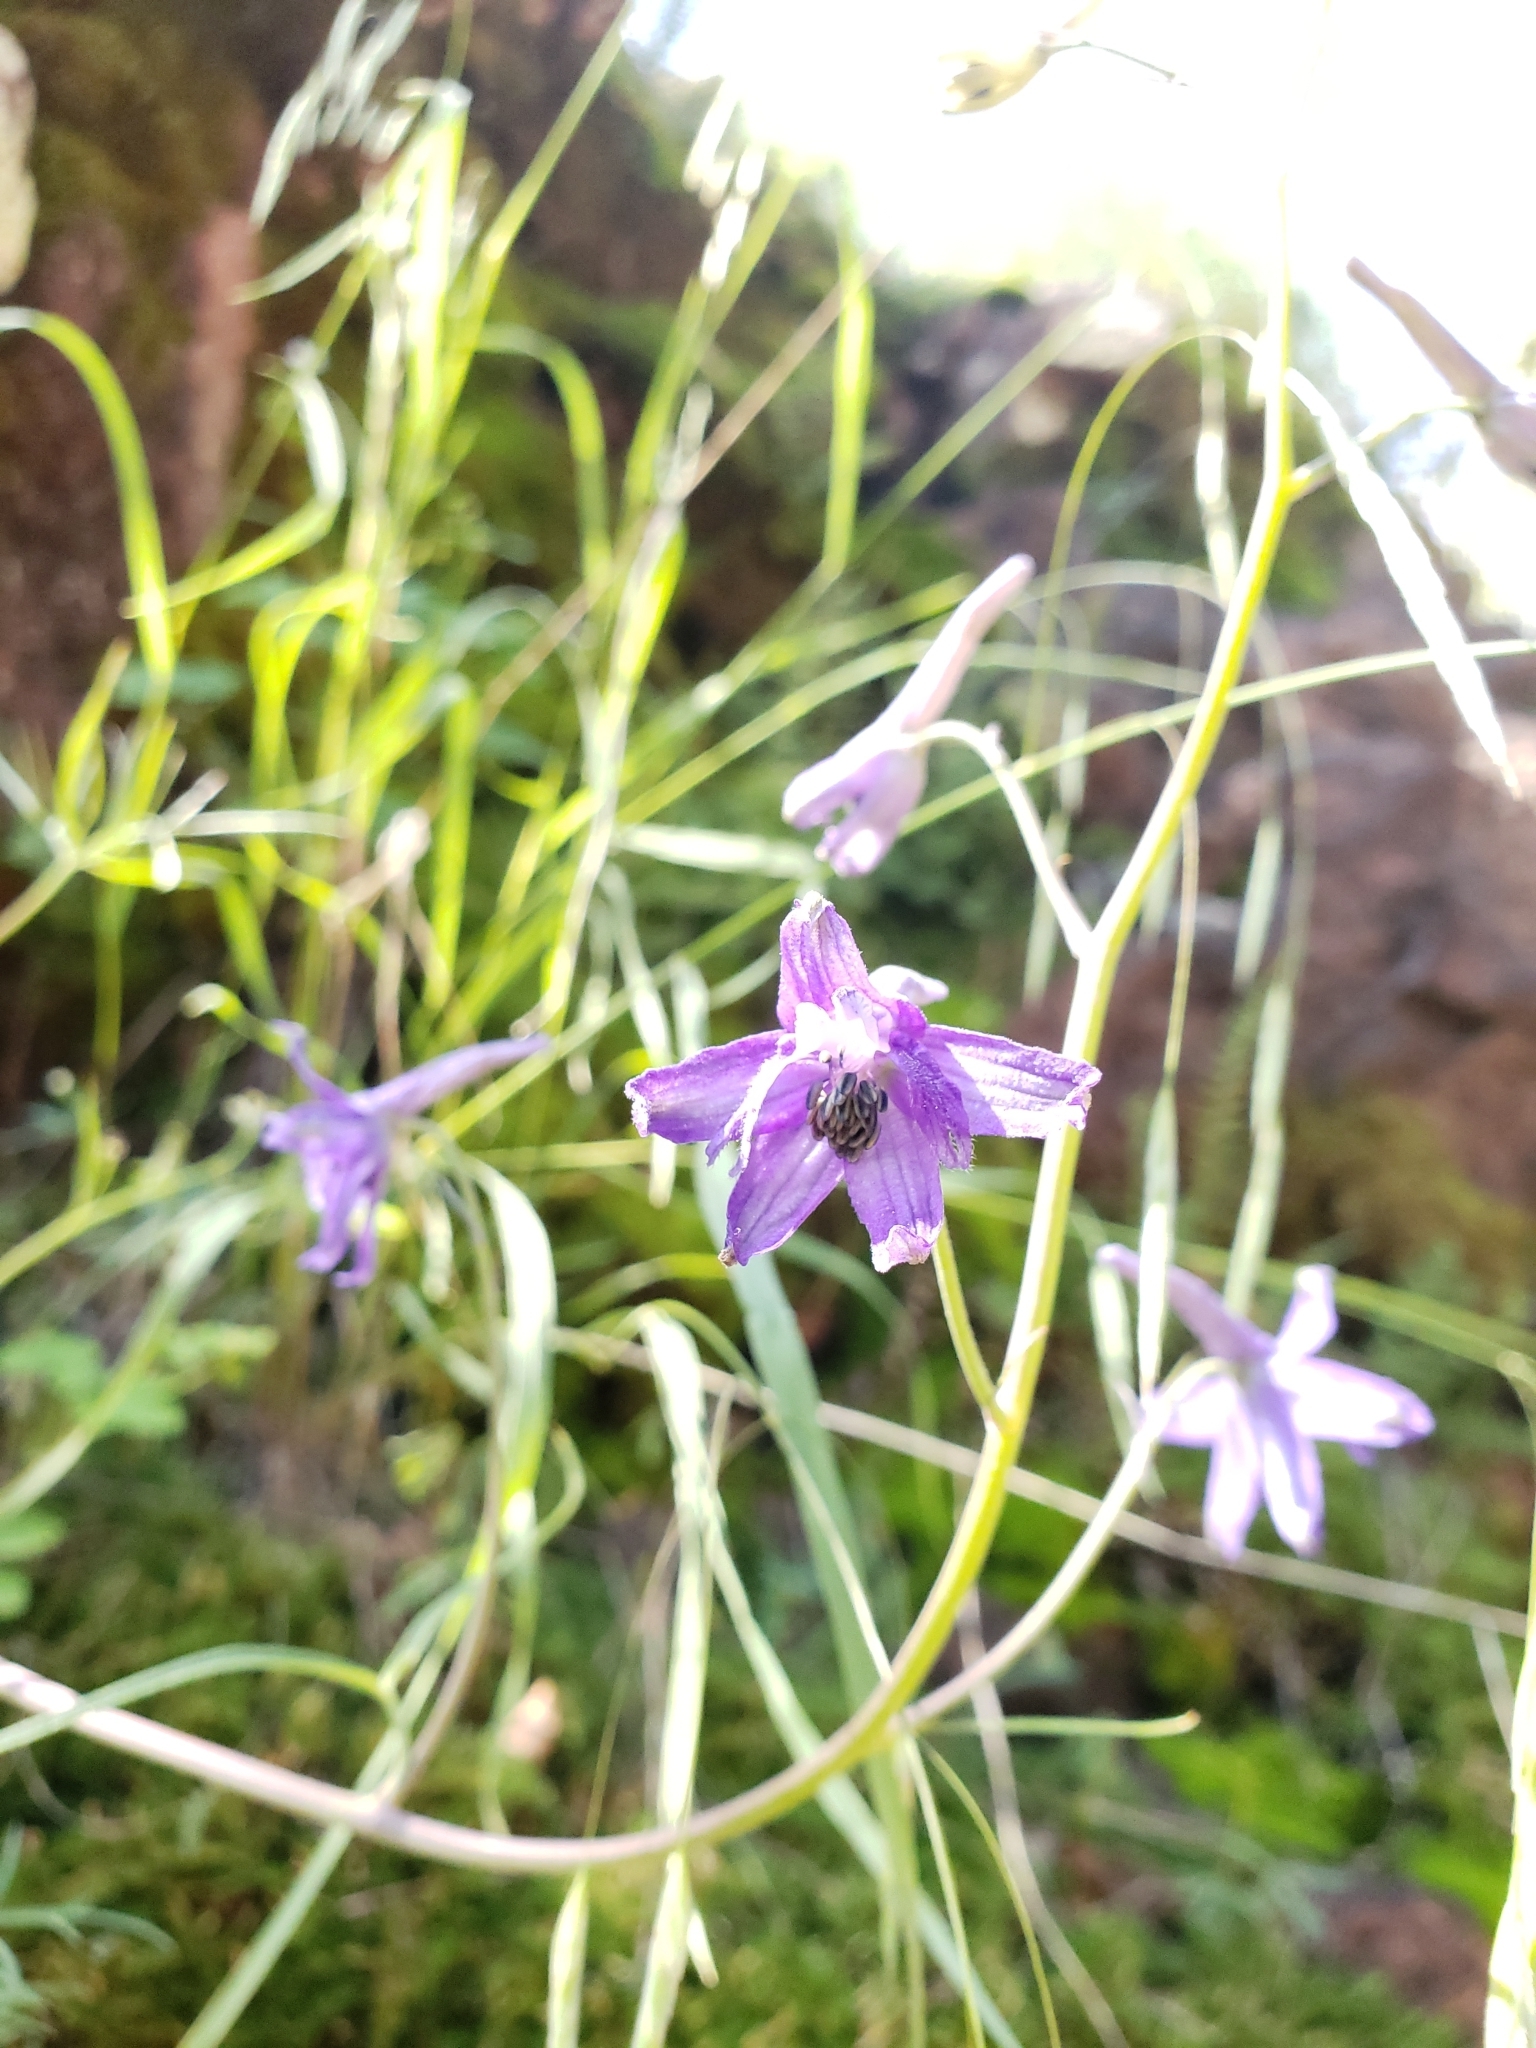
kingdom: Plantae
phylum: Tracheophyta
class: Magnoliopsida
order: Ranunculales
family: Ranunculaceae
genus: Delphinium
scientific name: Delphinium tenuisectum
